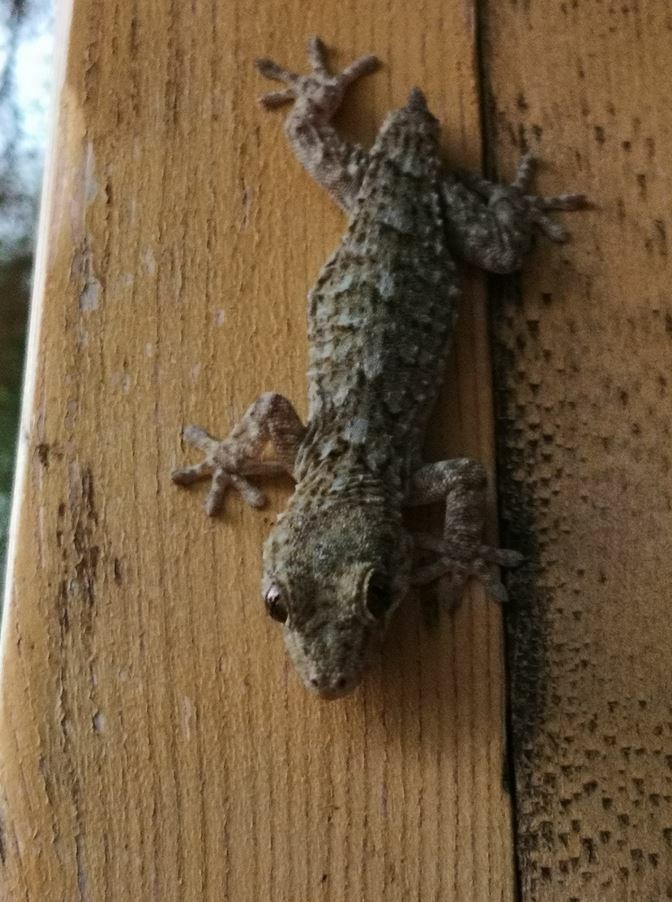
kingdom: Animalia
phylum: Chordata
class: Squamata
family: Phyllodactylidae
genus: Tarentola
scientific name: Tarentola delalandii
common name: Tenerife wall gecko
